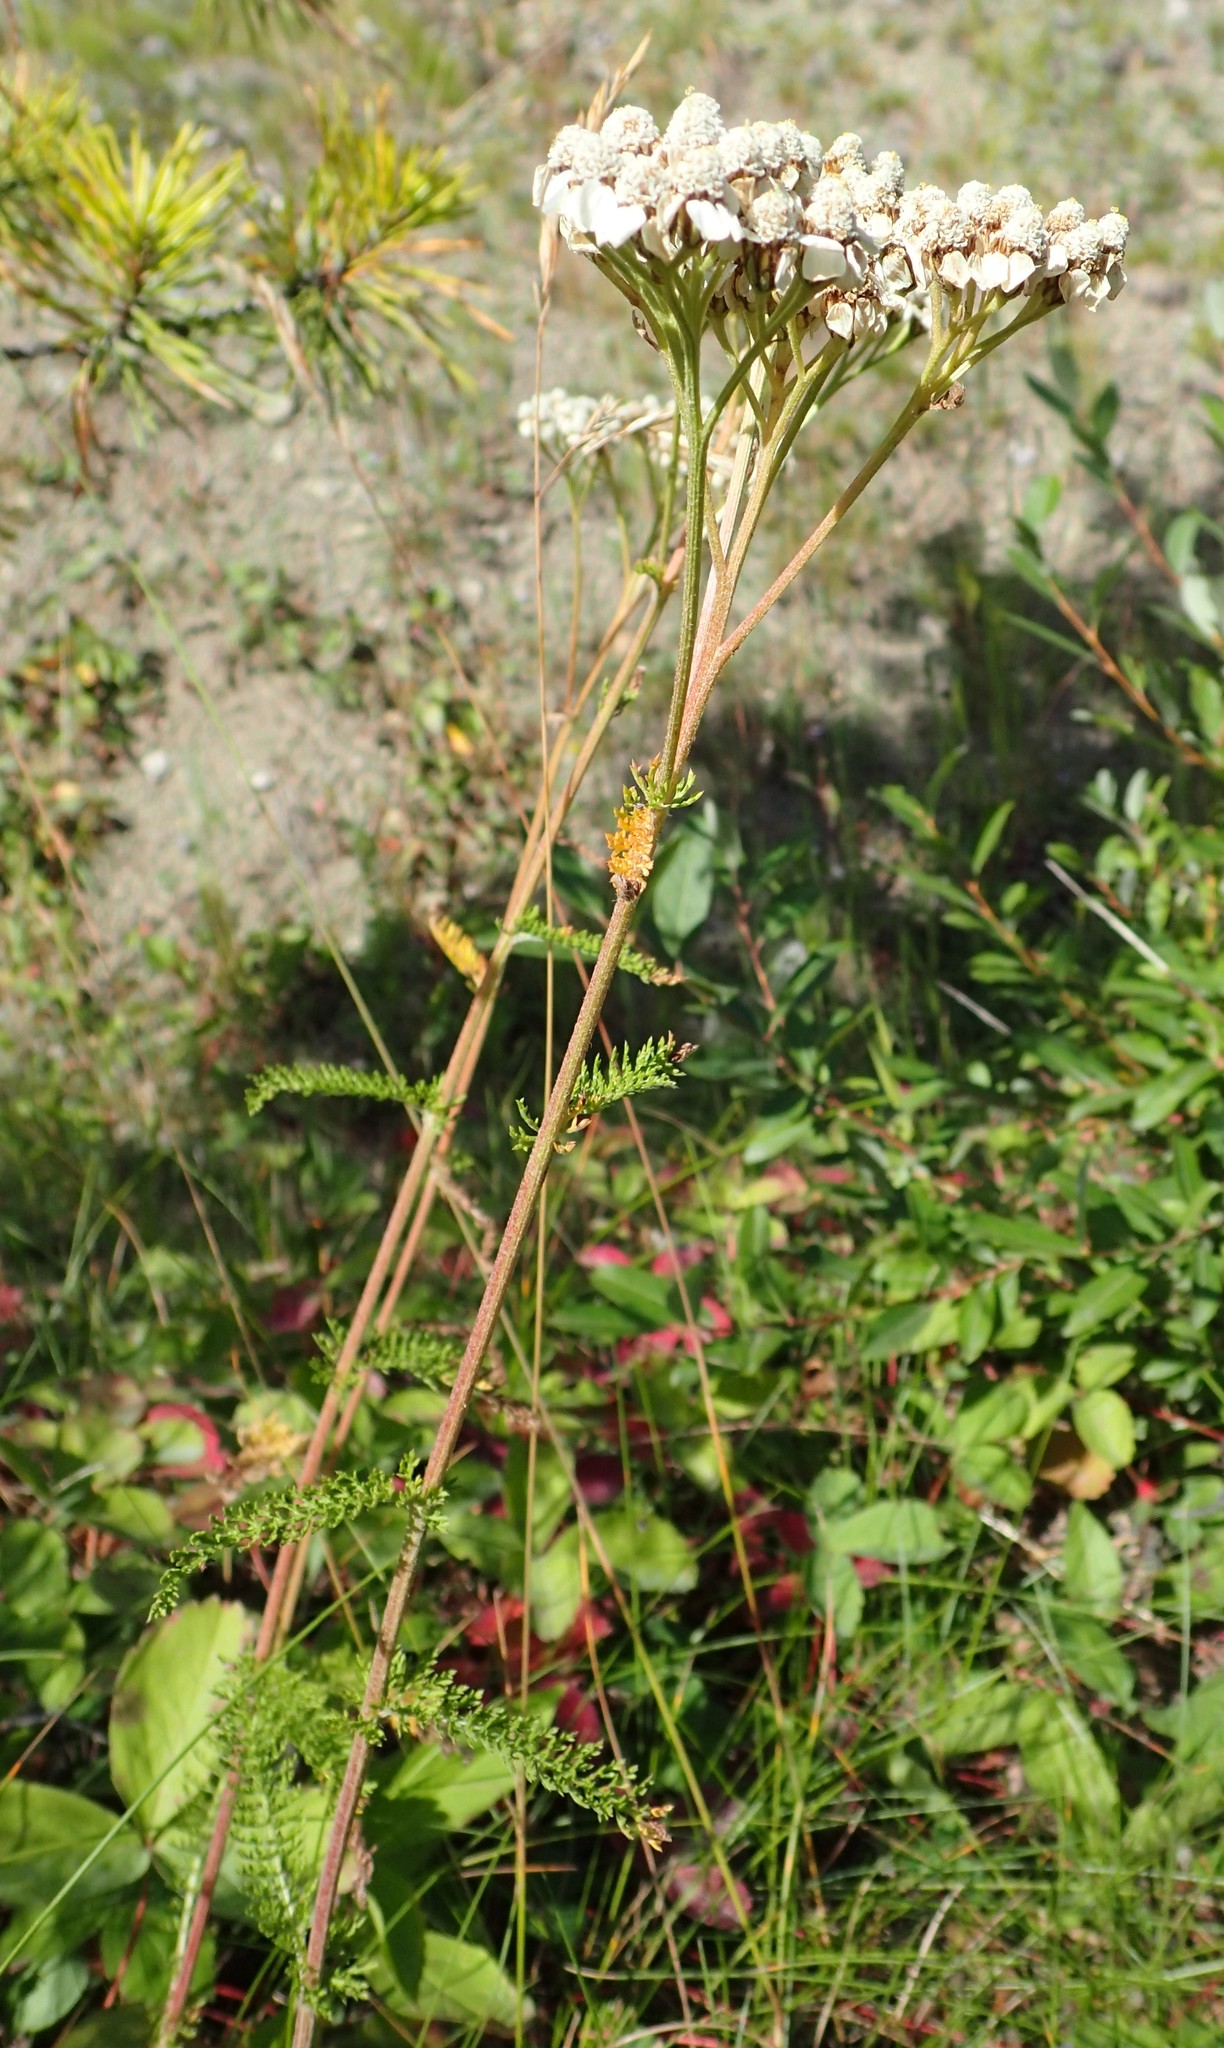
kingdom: Plantae
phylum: Tracheophyta
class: Magnoliopsida
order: Asterales
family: Asteraceae
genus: Achillea
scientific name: Achillea millefolium
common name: Yarrow
